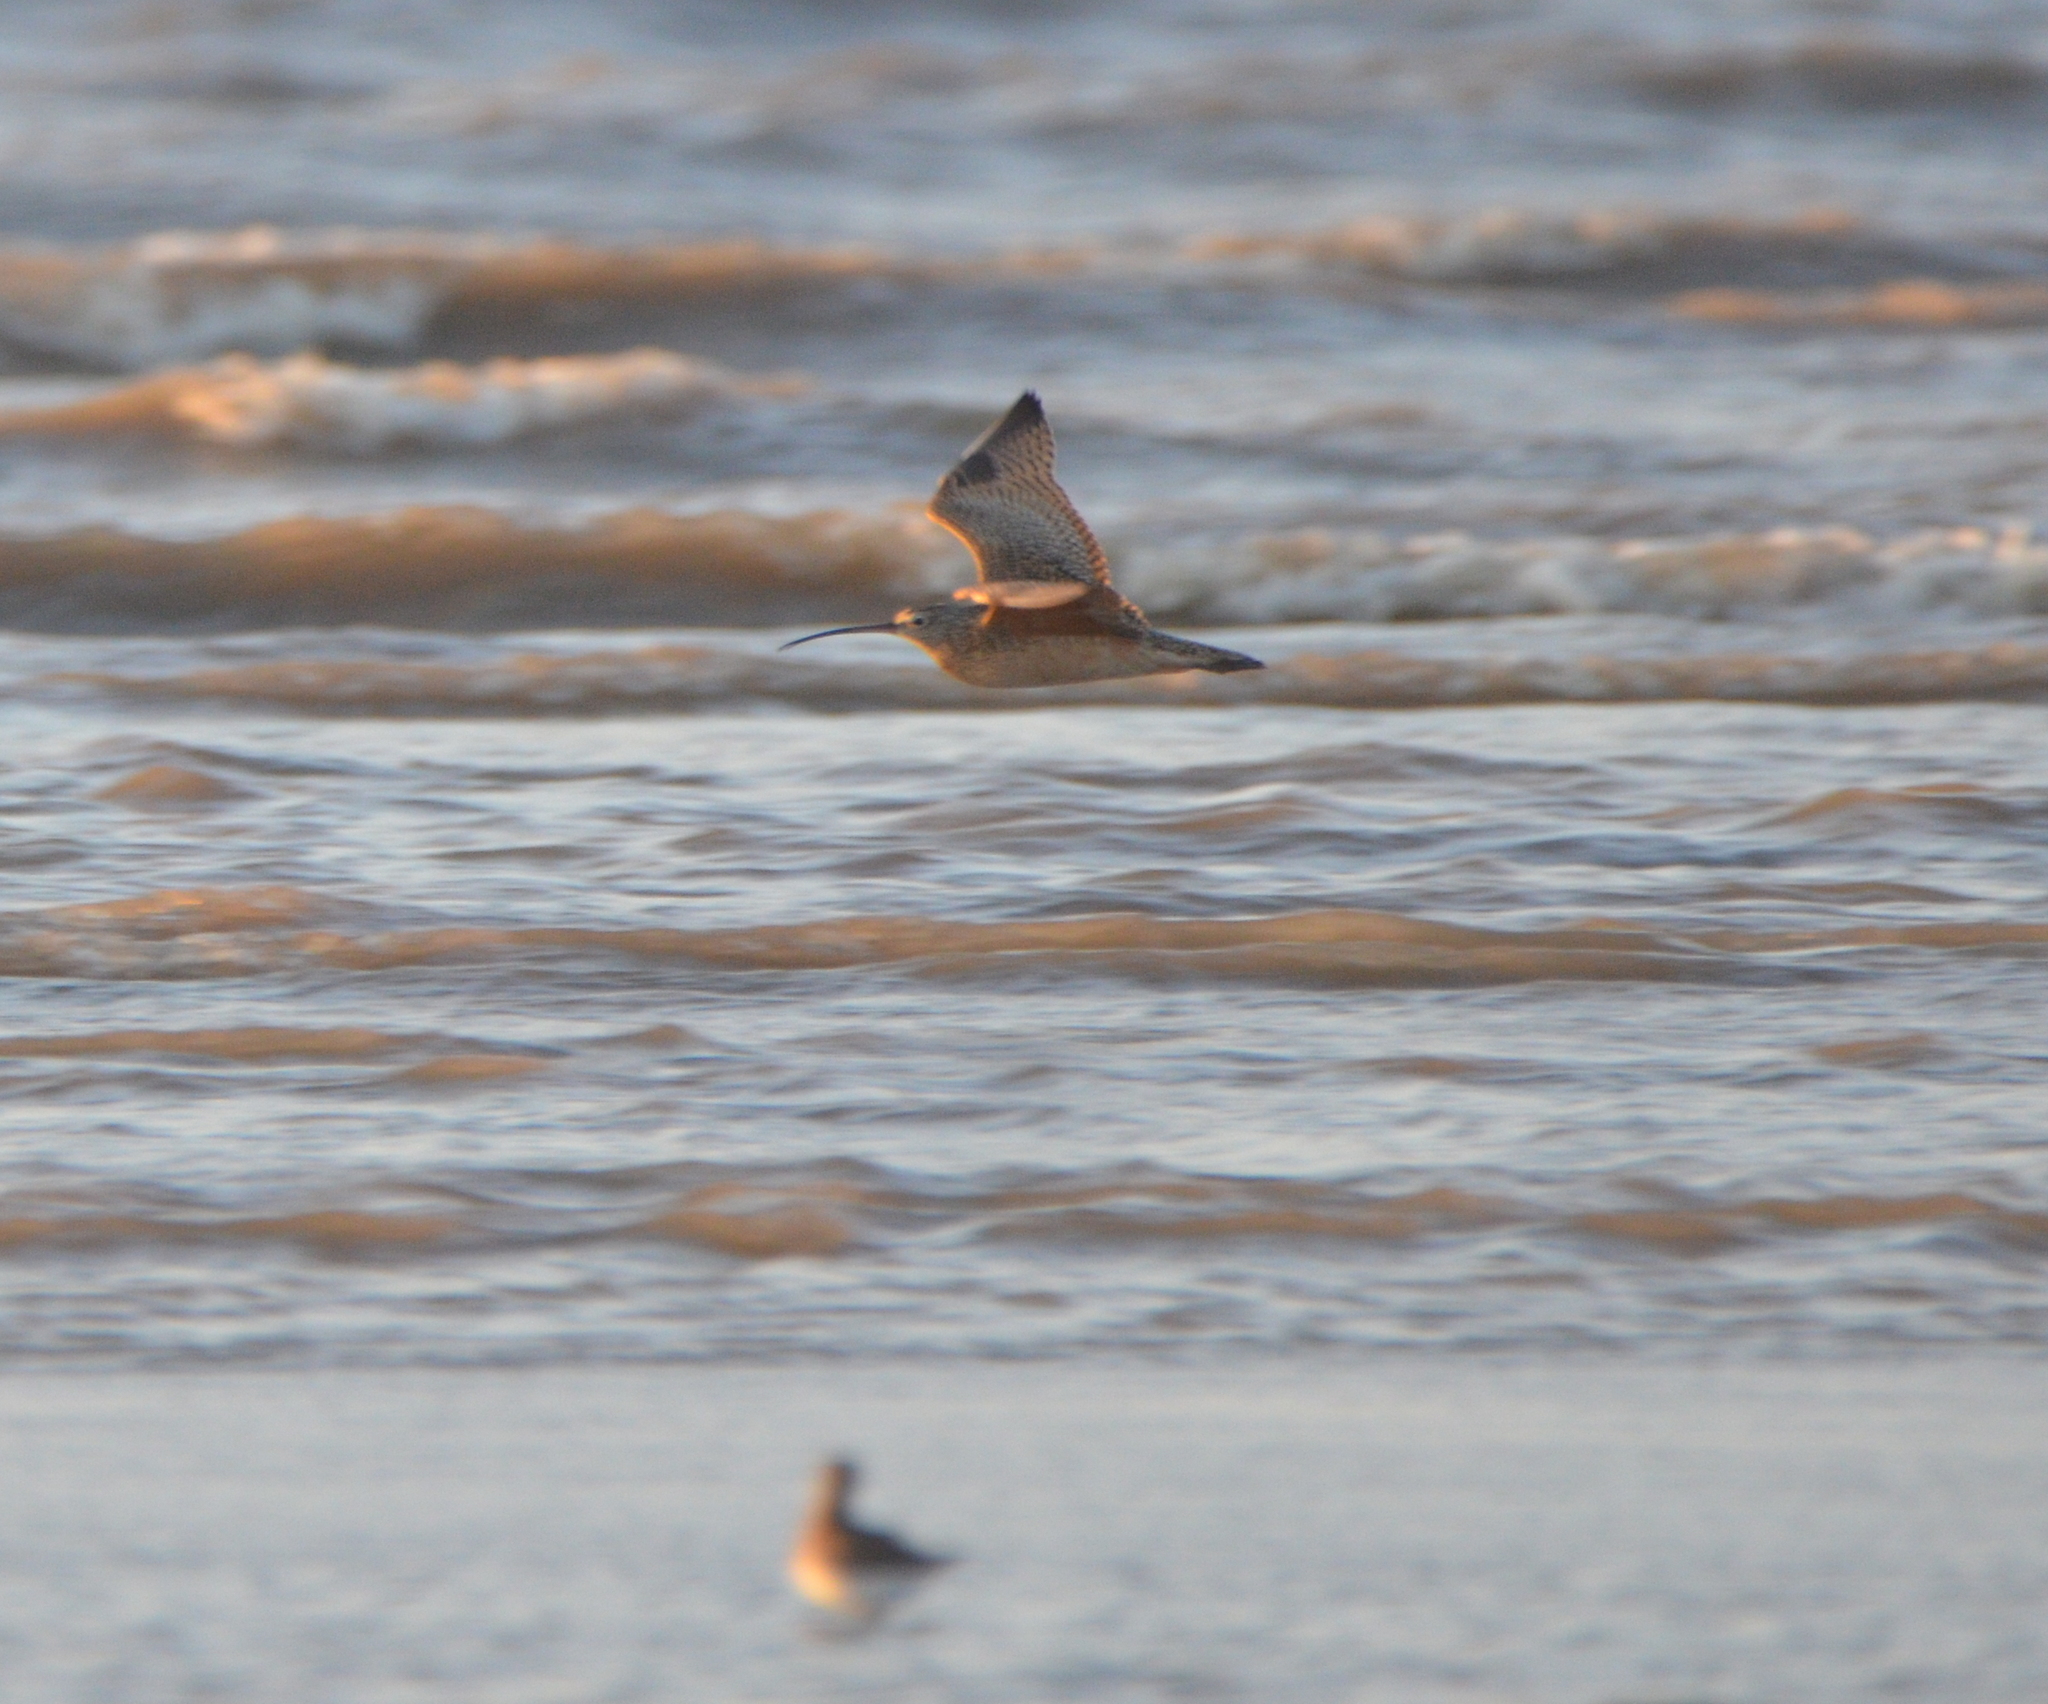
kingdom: Animalia
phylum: Chordata
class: Aves
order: Charadriiformes
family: Scolopacidae
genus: Numenius
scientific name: Numenius americanus
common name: Long-billed curlew
